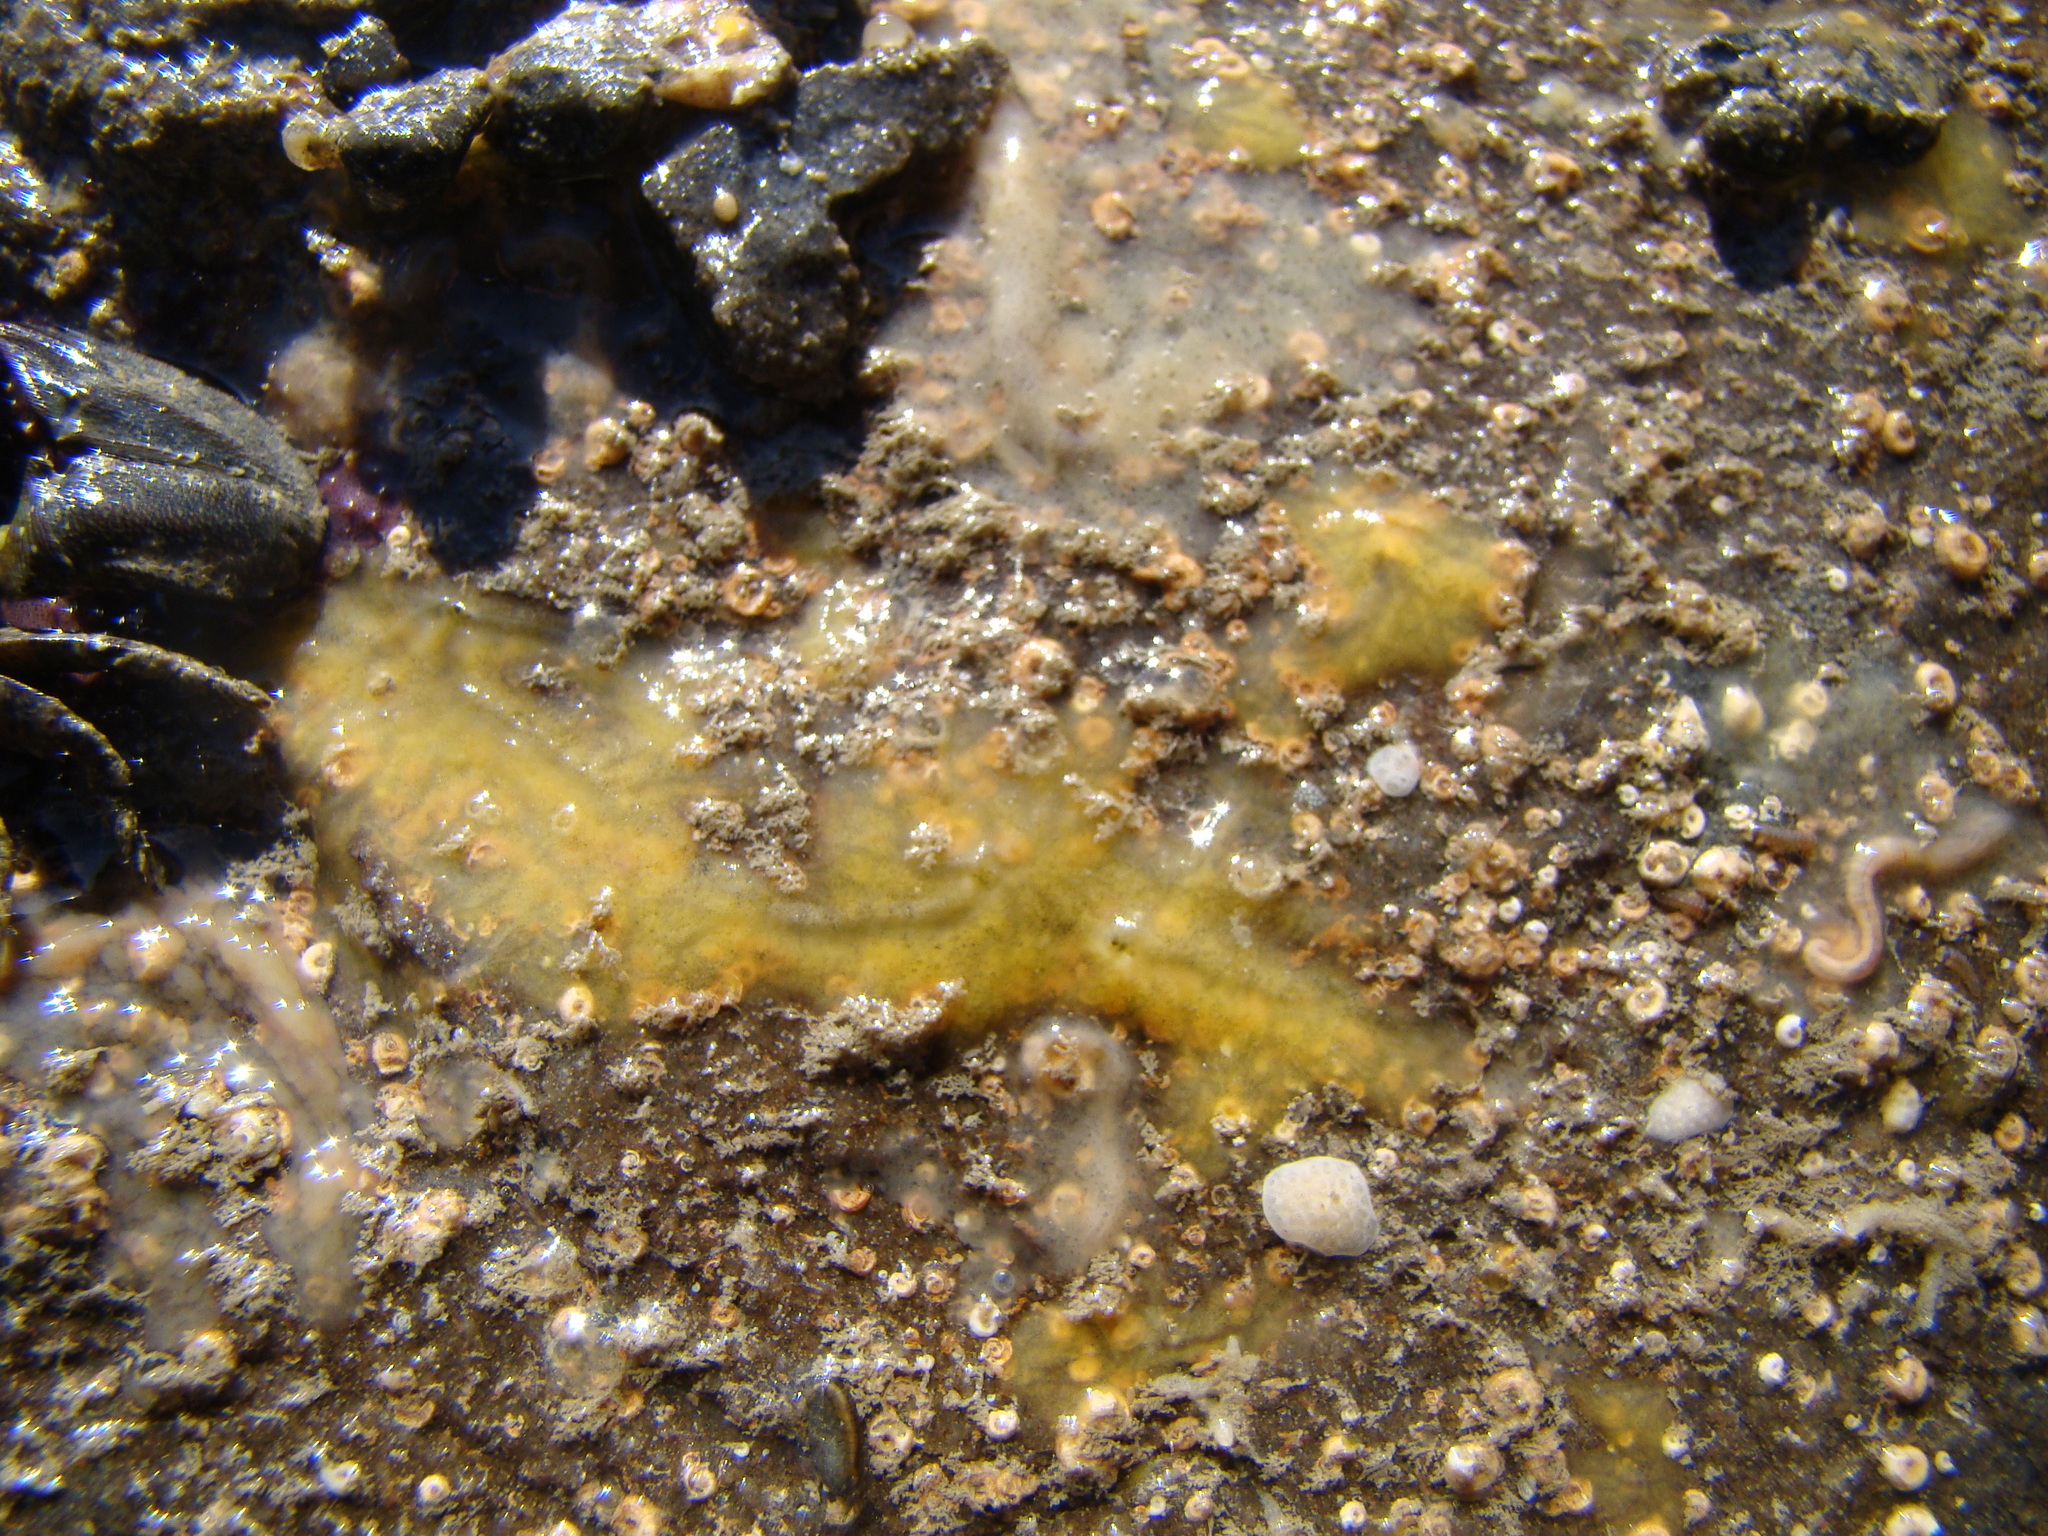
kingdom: Animalia
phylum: Porifera
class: Demospongiae
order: Tethyida
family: Timeidae
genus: Timea
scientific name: Timea aurantiaca
